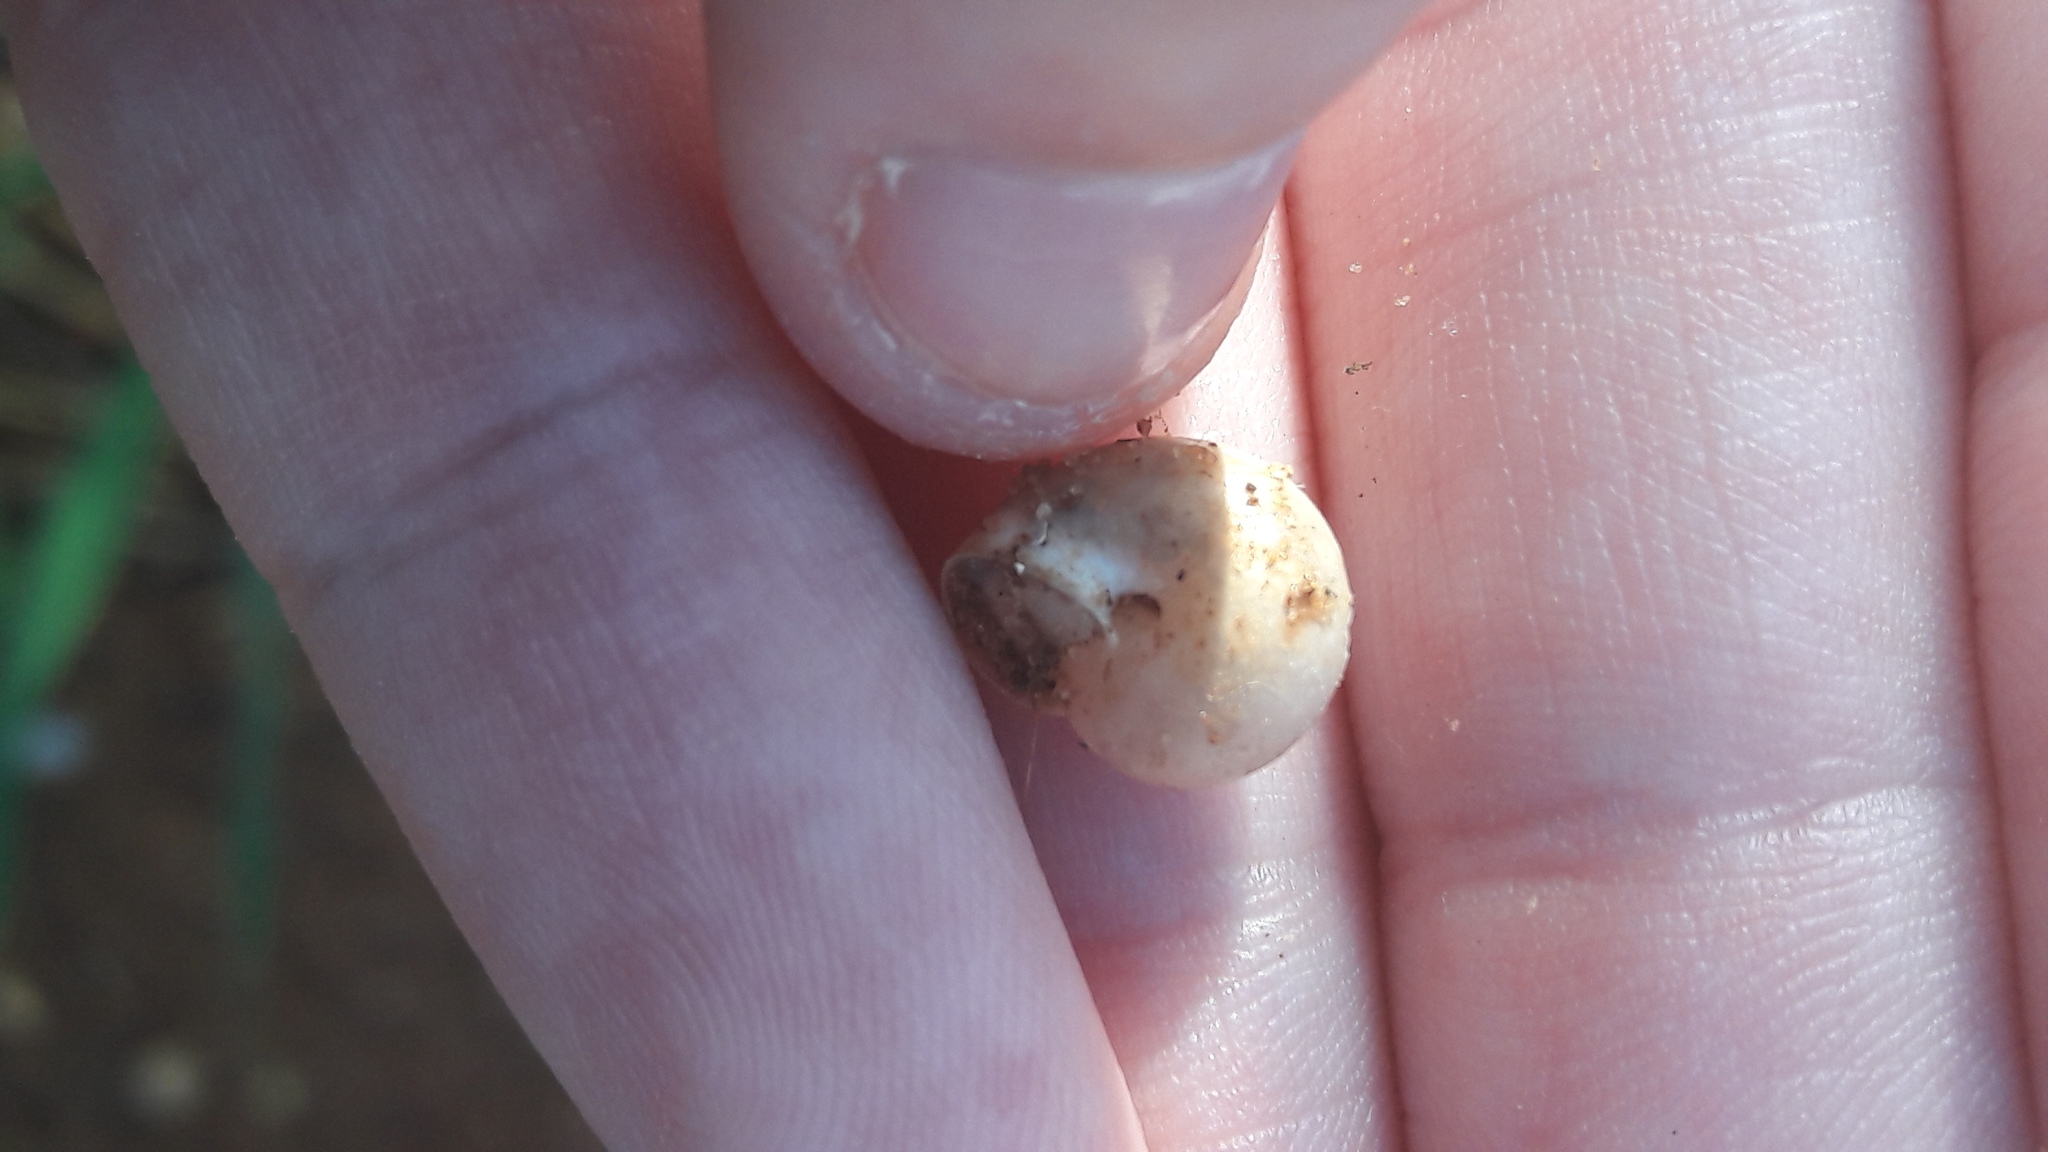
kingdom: Animalia
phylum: Mollusca
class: Gastropoda
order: Stylommatophora
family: Hygromiidae
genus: Monacha
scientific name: Monacha obstructa
